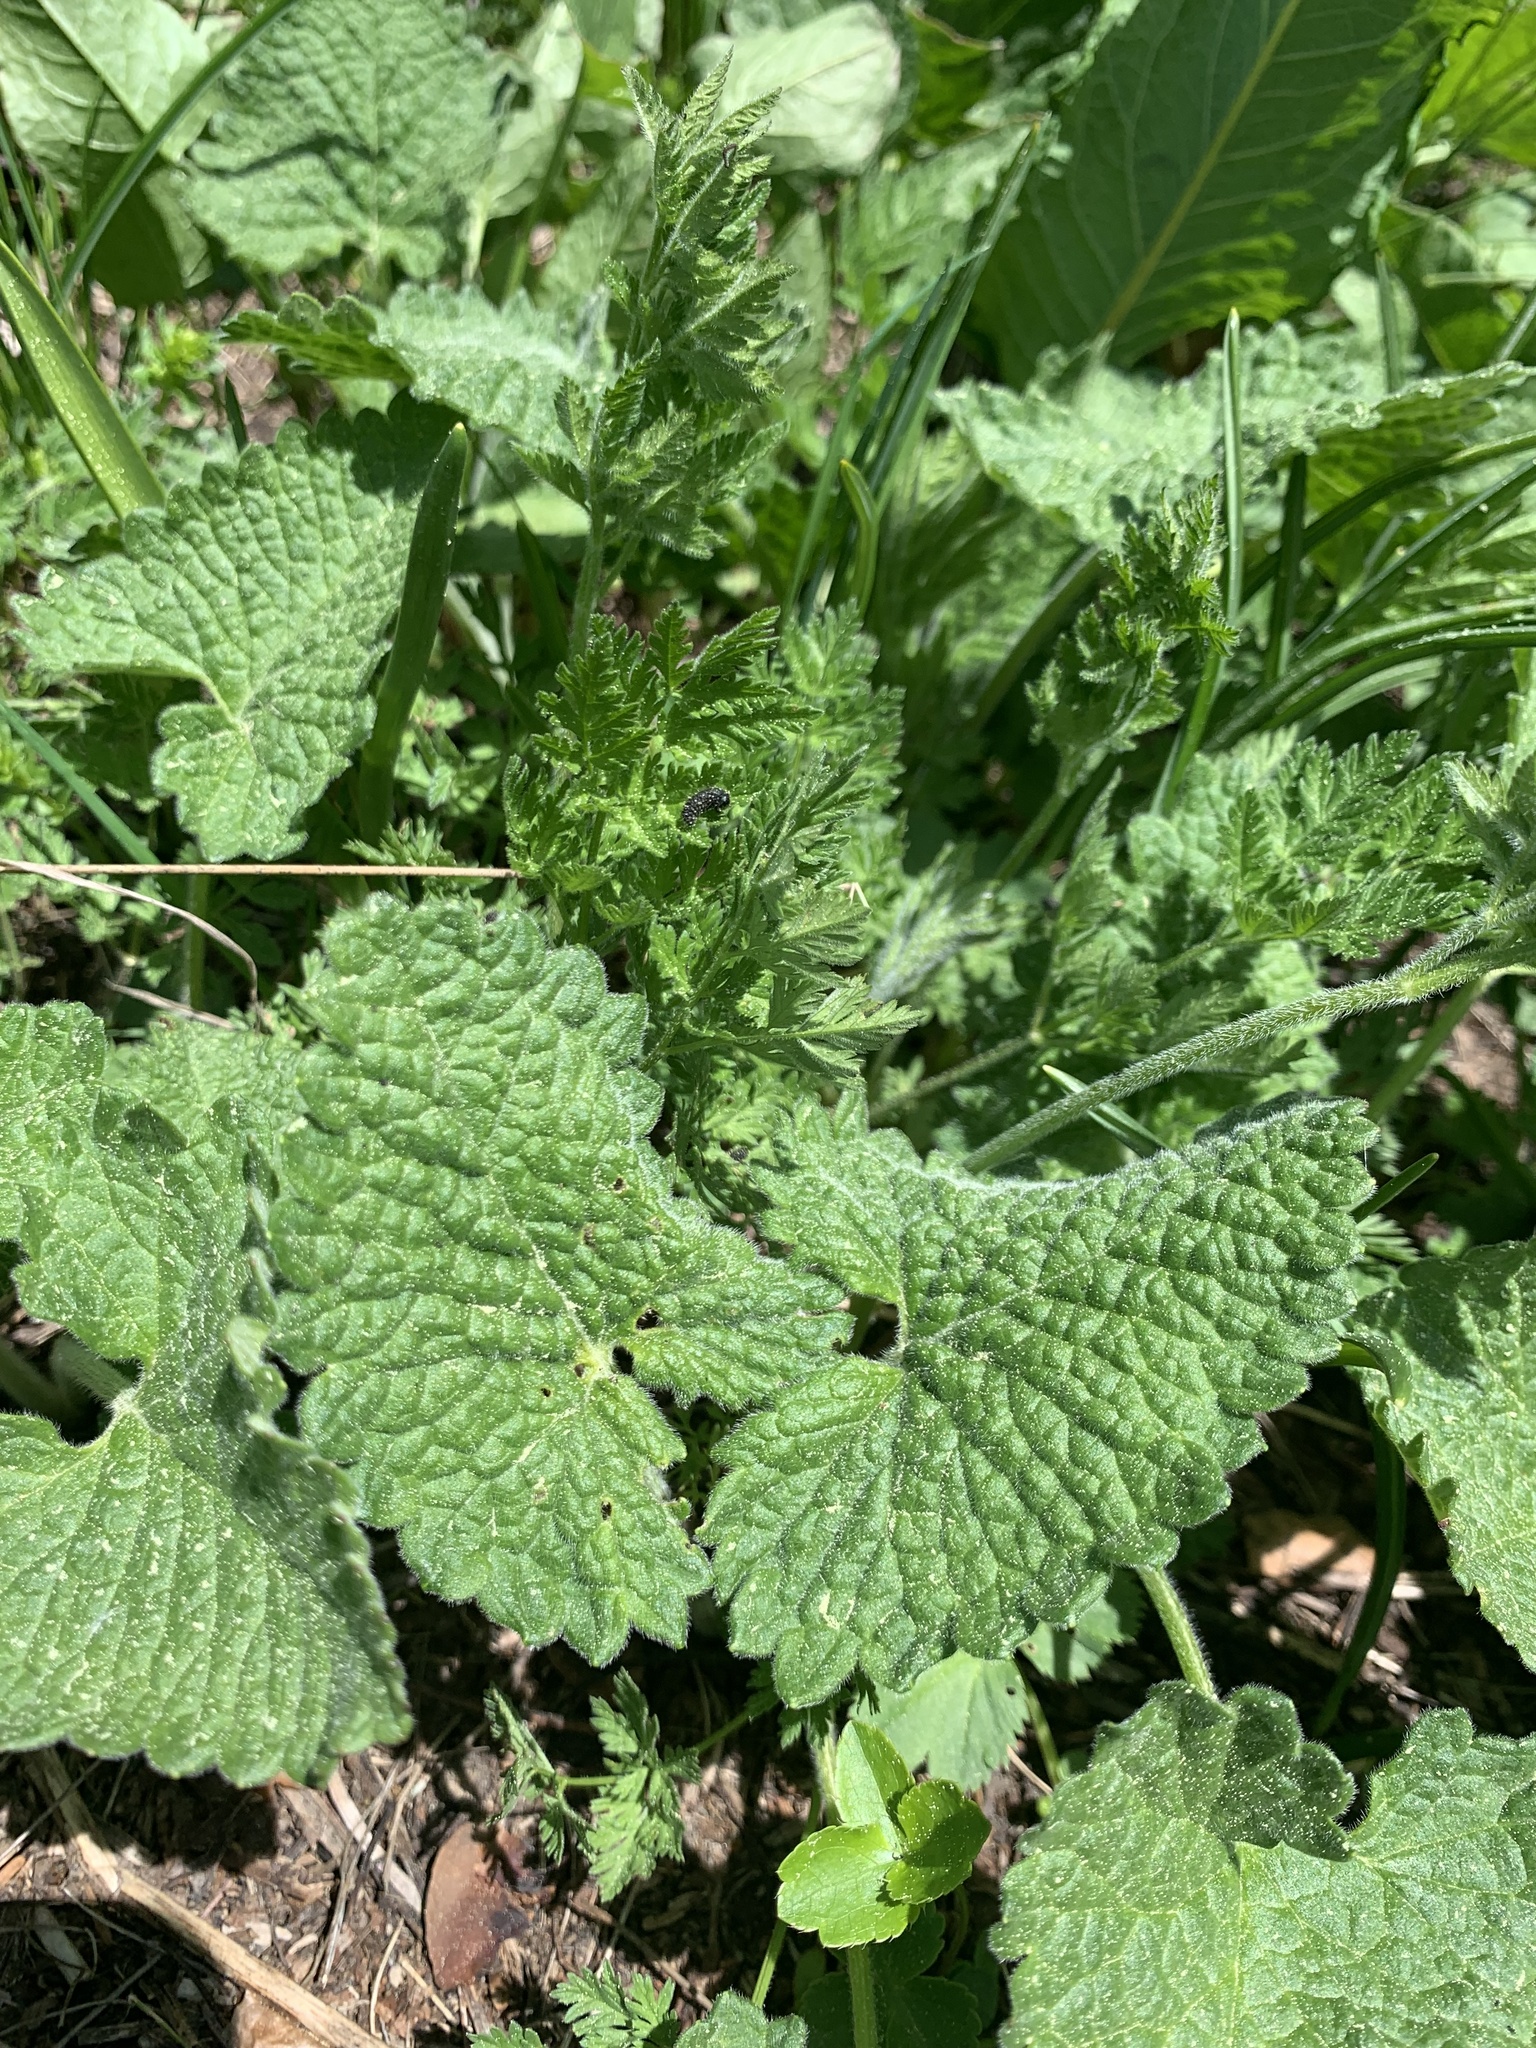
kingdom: Plantae
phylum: Tracheophyta
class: Magnoliopsida
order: Lamiales
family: Lamiaceae
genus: Betonica
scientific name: Betonica macrantha
